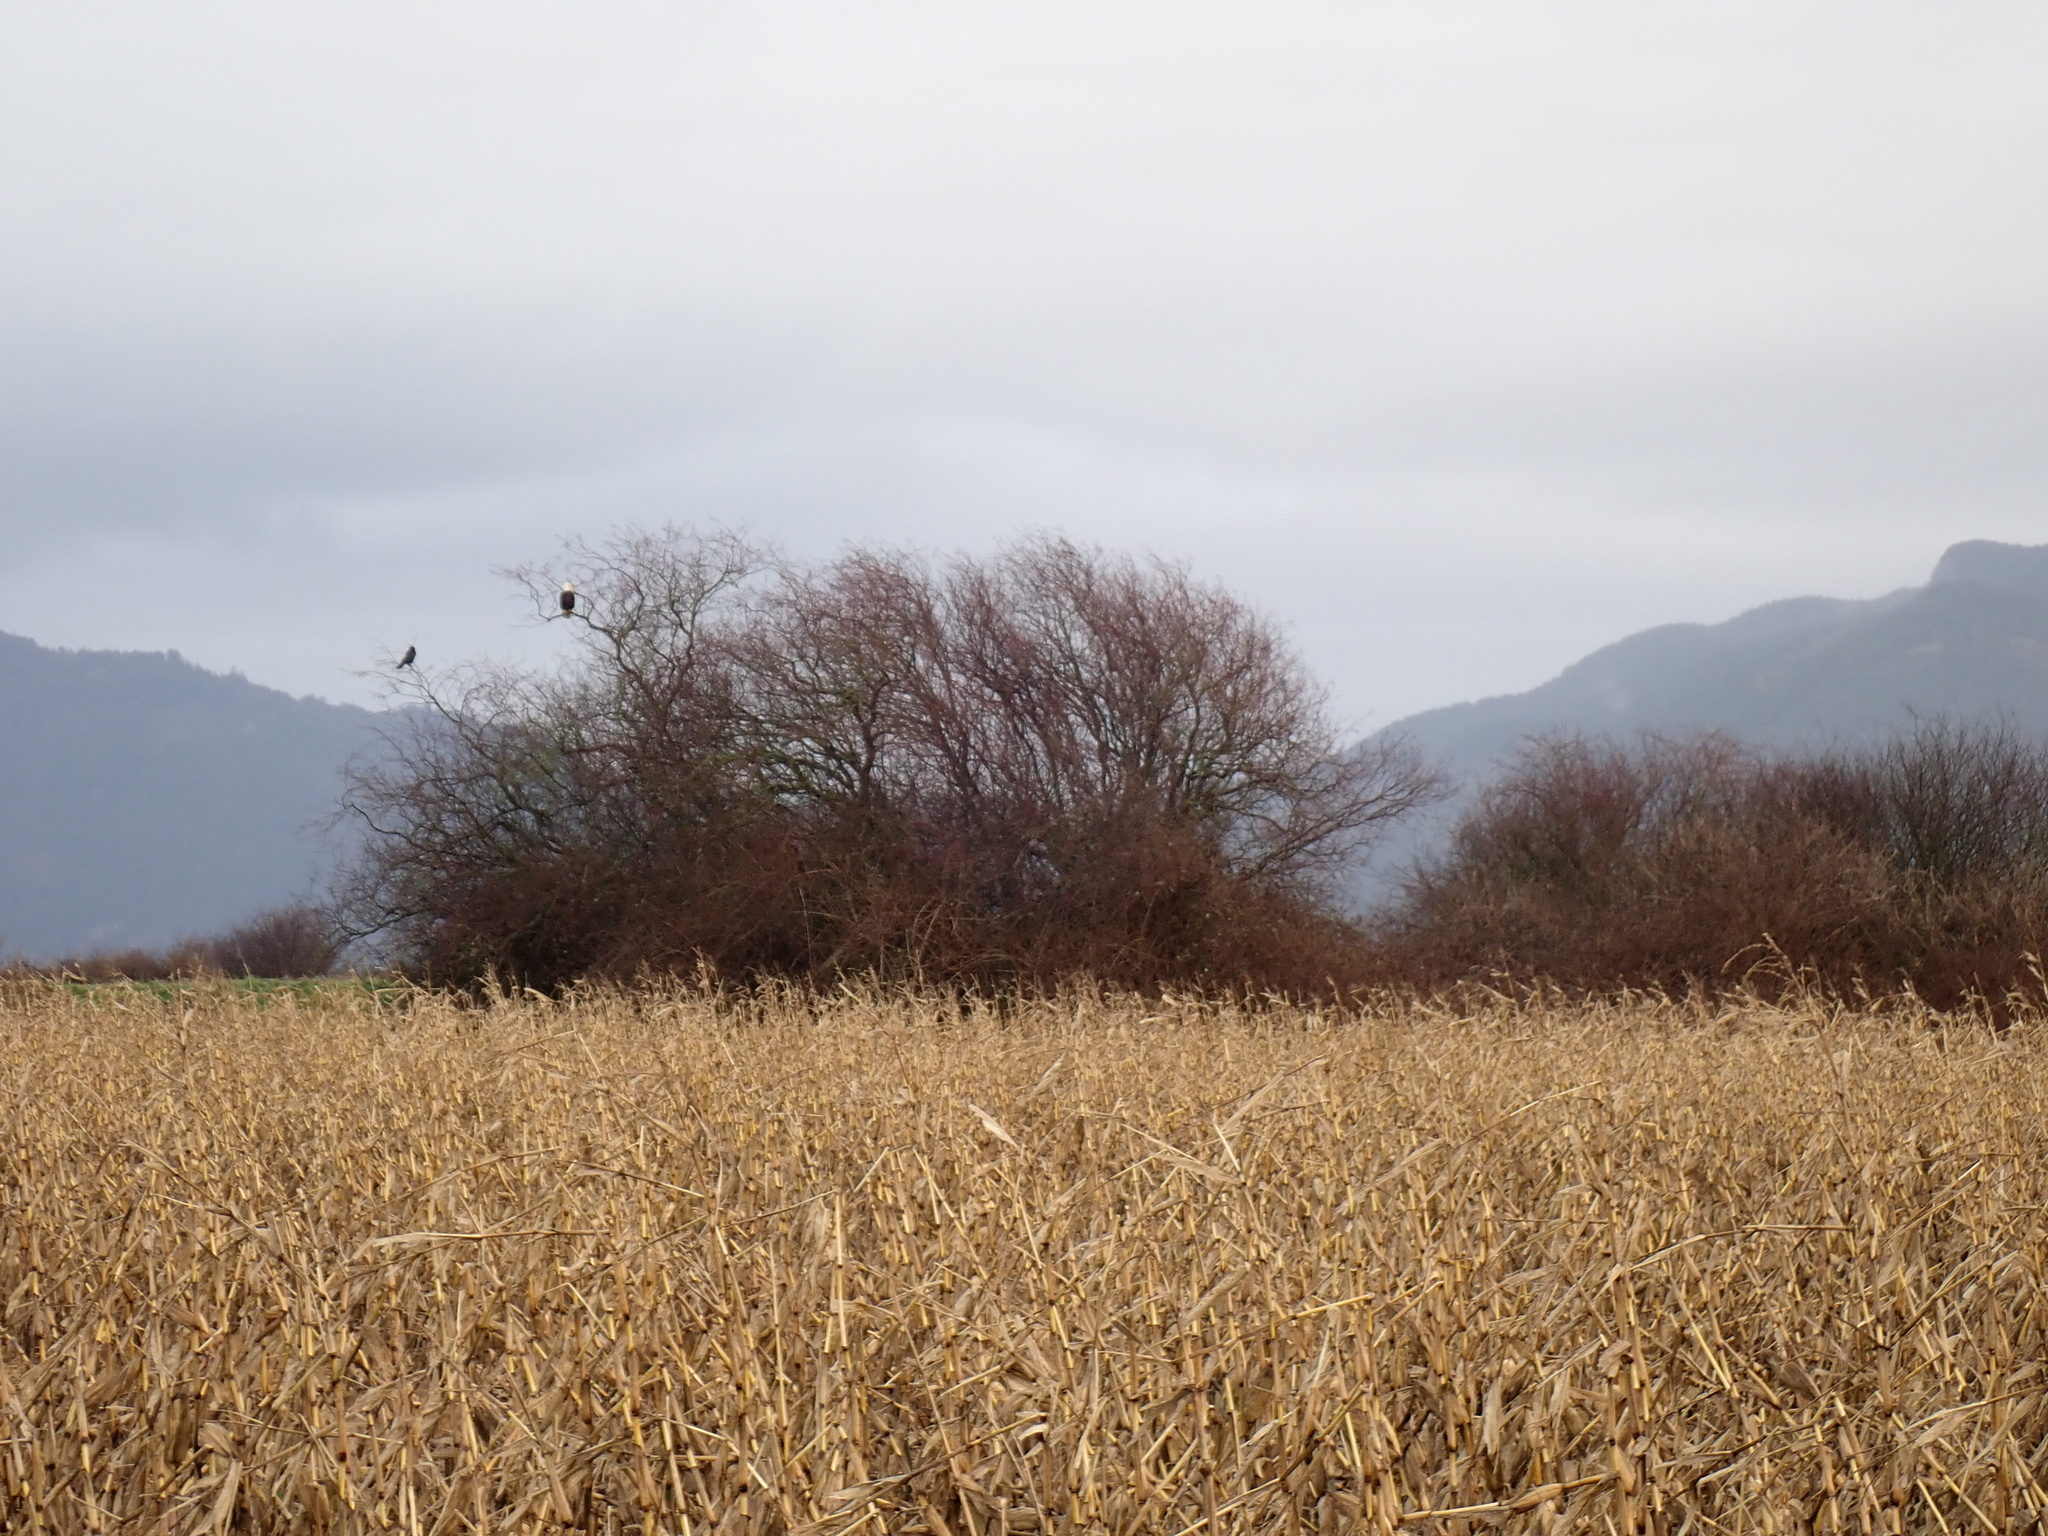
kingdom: Animalia
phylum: Chordata
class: Aves
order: Accipitriformes
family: Accipitridae
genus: Haliaeetus
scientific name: Haliaeetus leucocephalus
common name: Bald eagle
